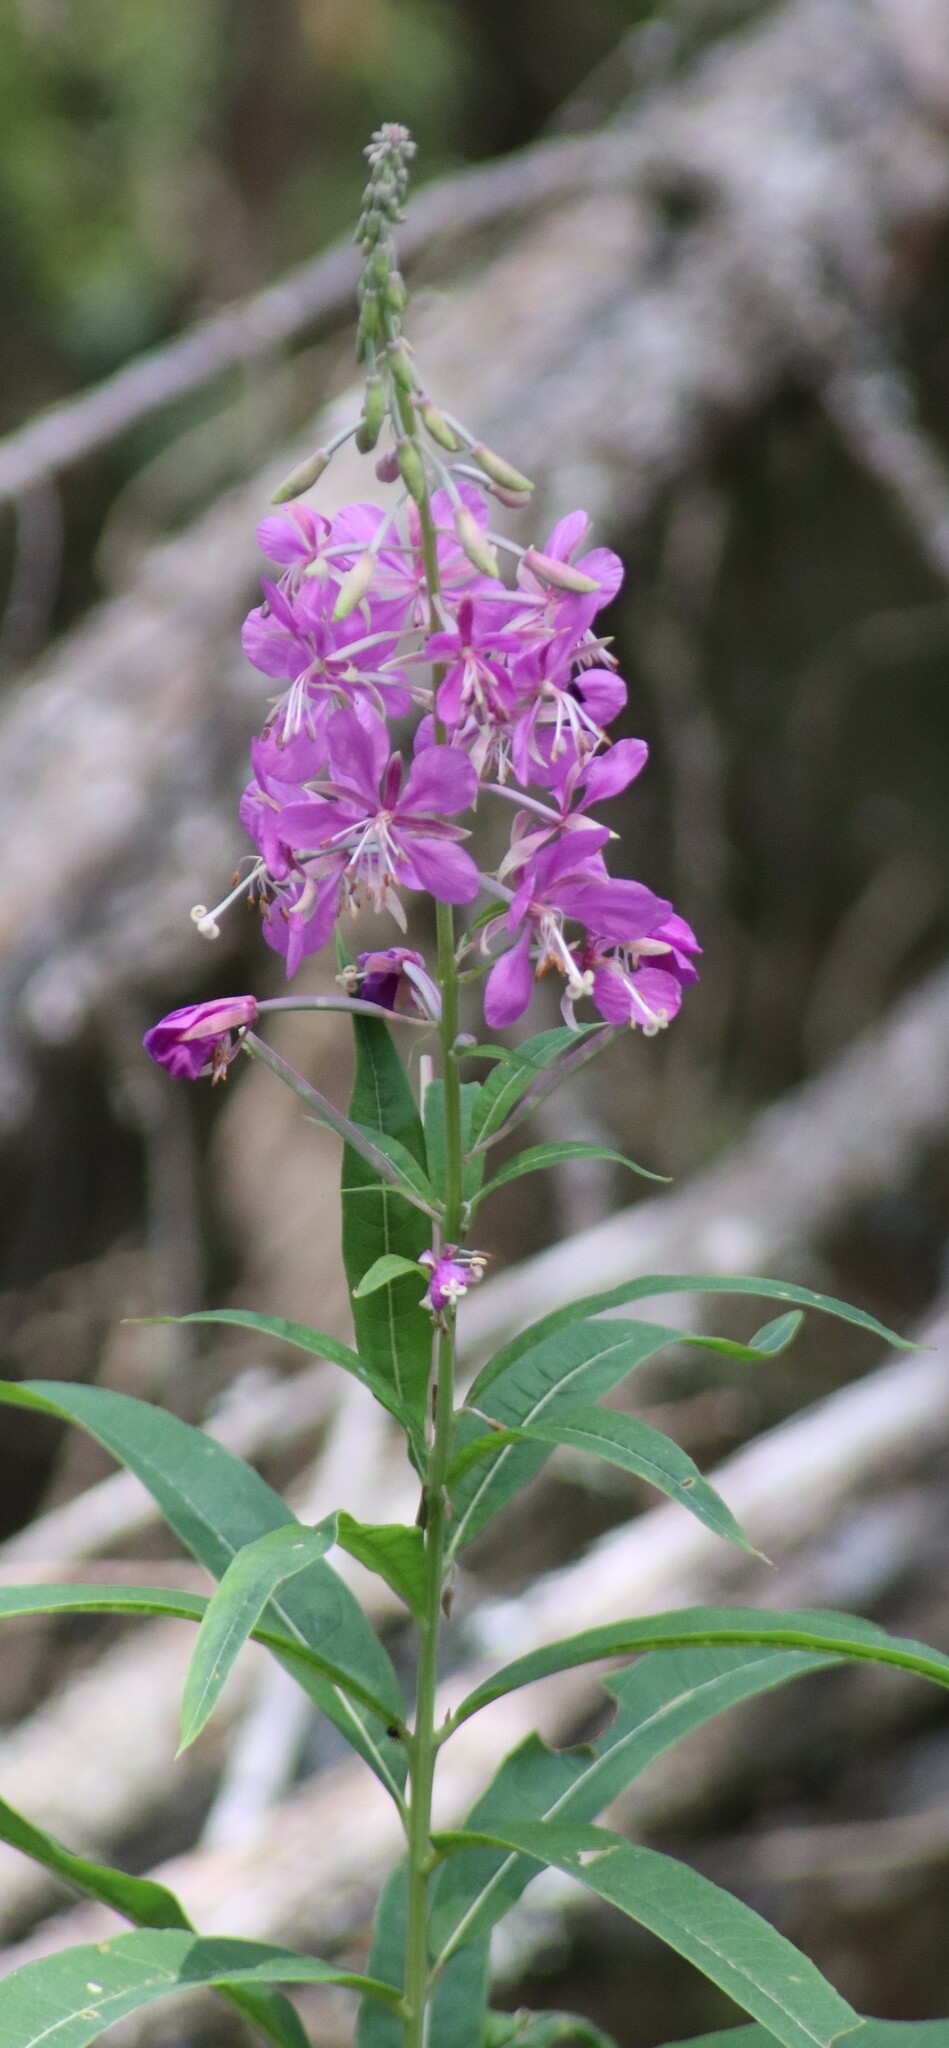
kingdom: Plantae
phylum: Tracheophyta
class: Magnoliopsida
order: Myrtales
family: Onagraceae
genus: Chamaenerion
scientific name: Chamaenerion angustifolium
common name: Fireweed
